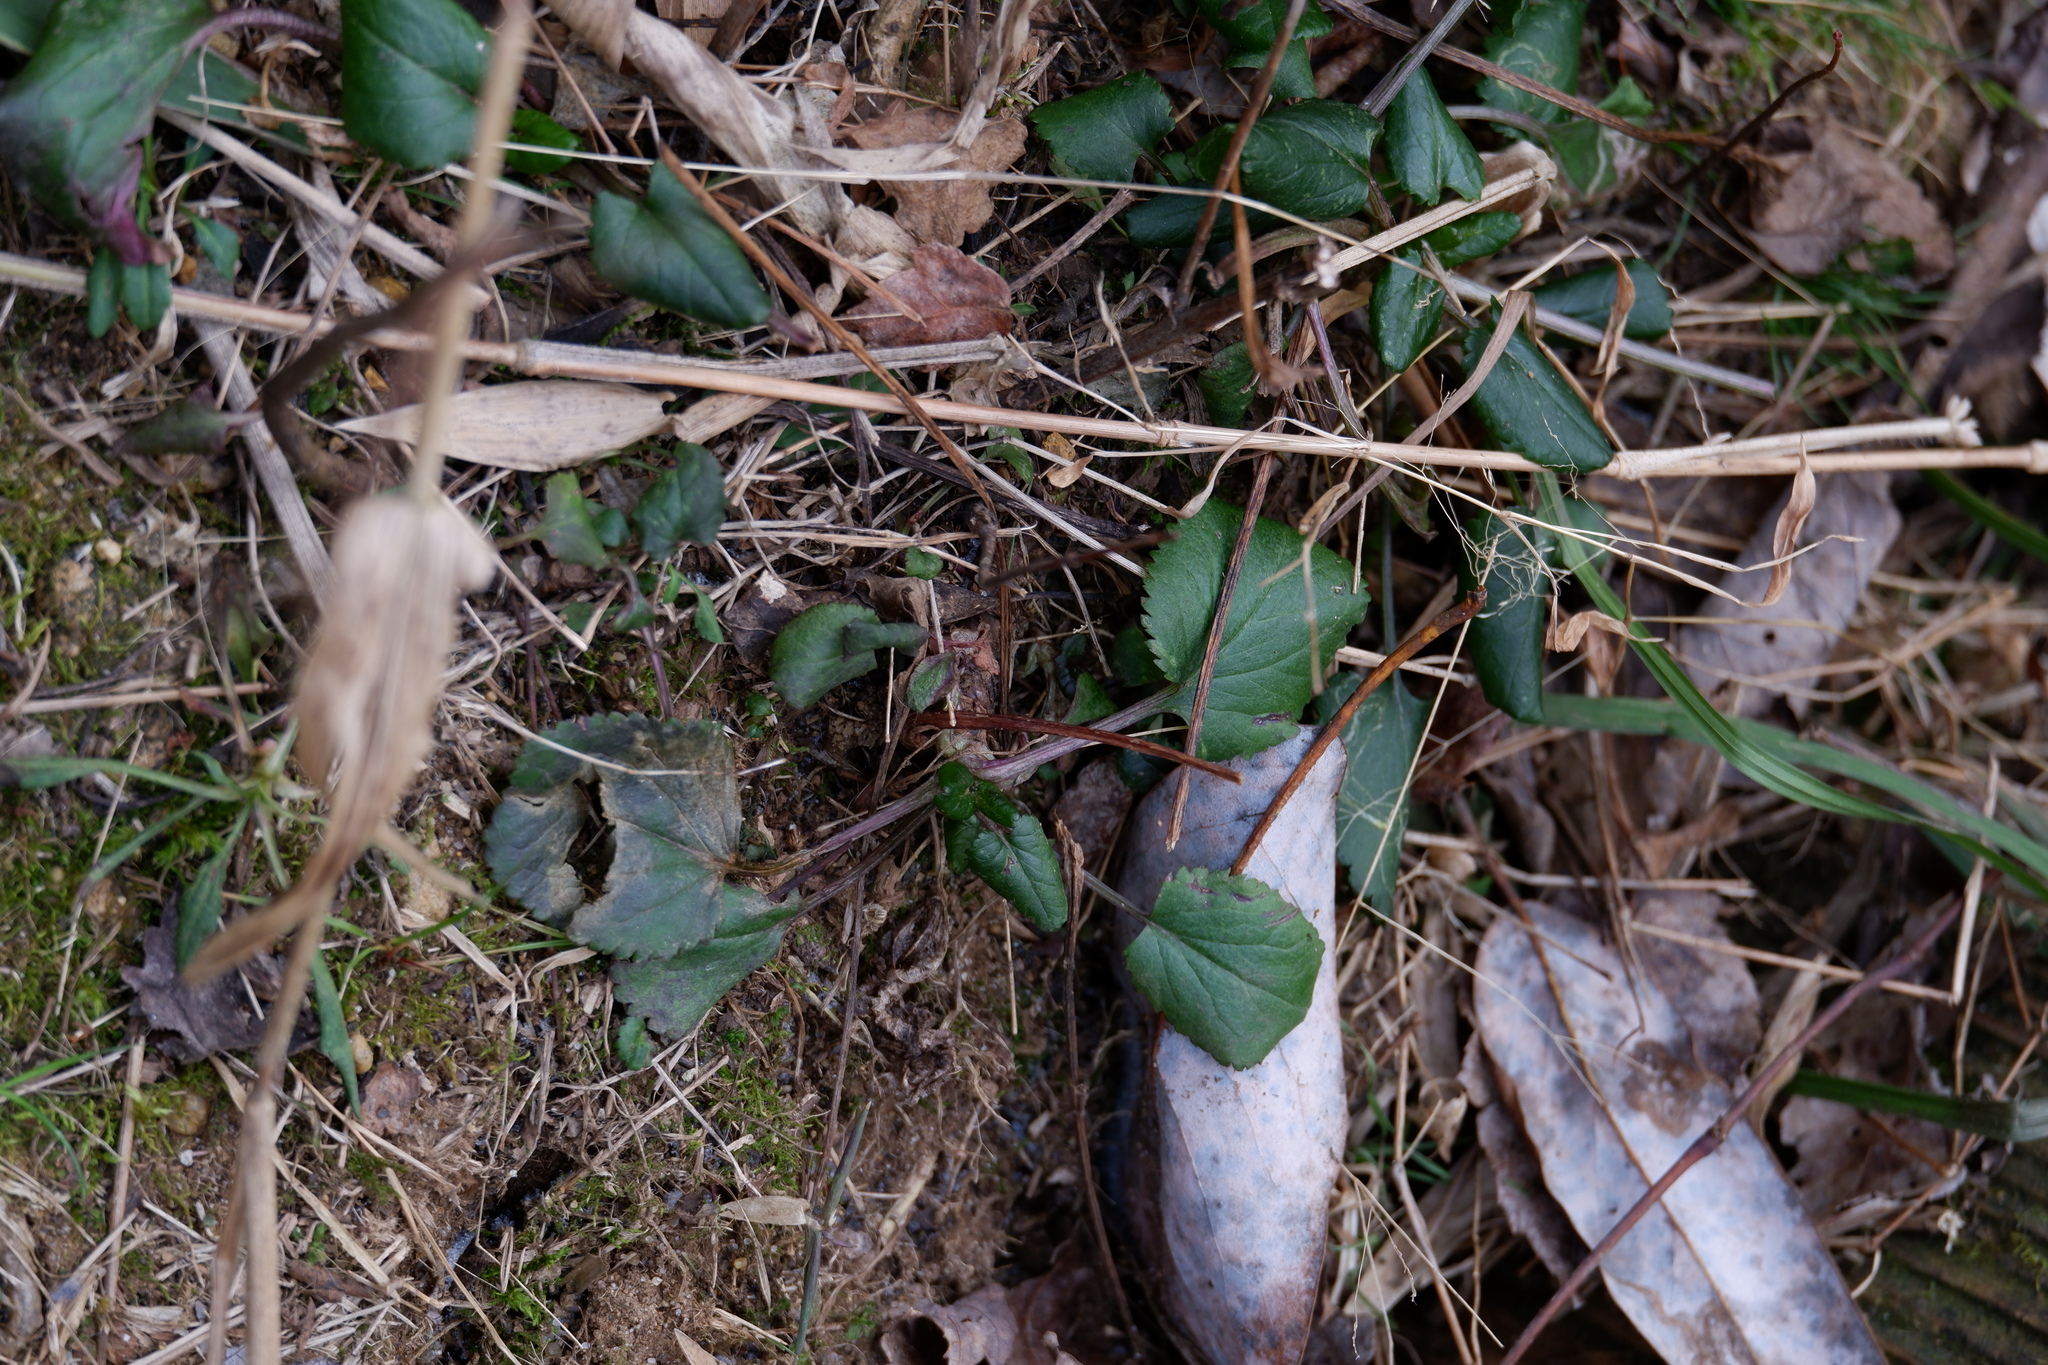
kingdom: Plantae
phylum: Tracheophyta
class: Magnoliopsida
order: Asterales
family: Asteraceae
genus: Packera
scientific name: Packera aurea
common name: Golden groundsel
